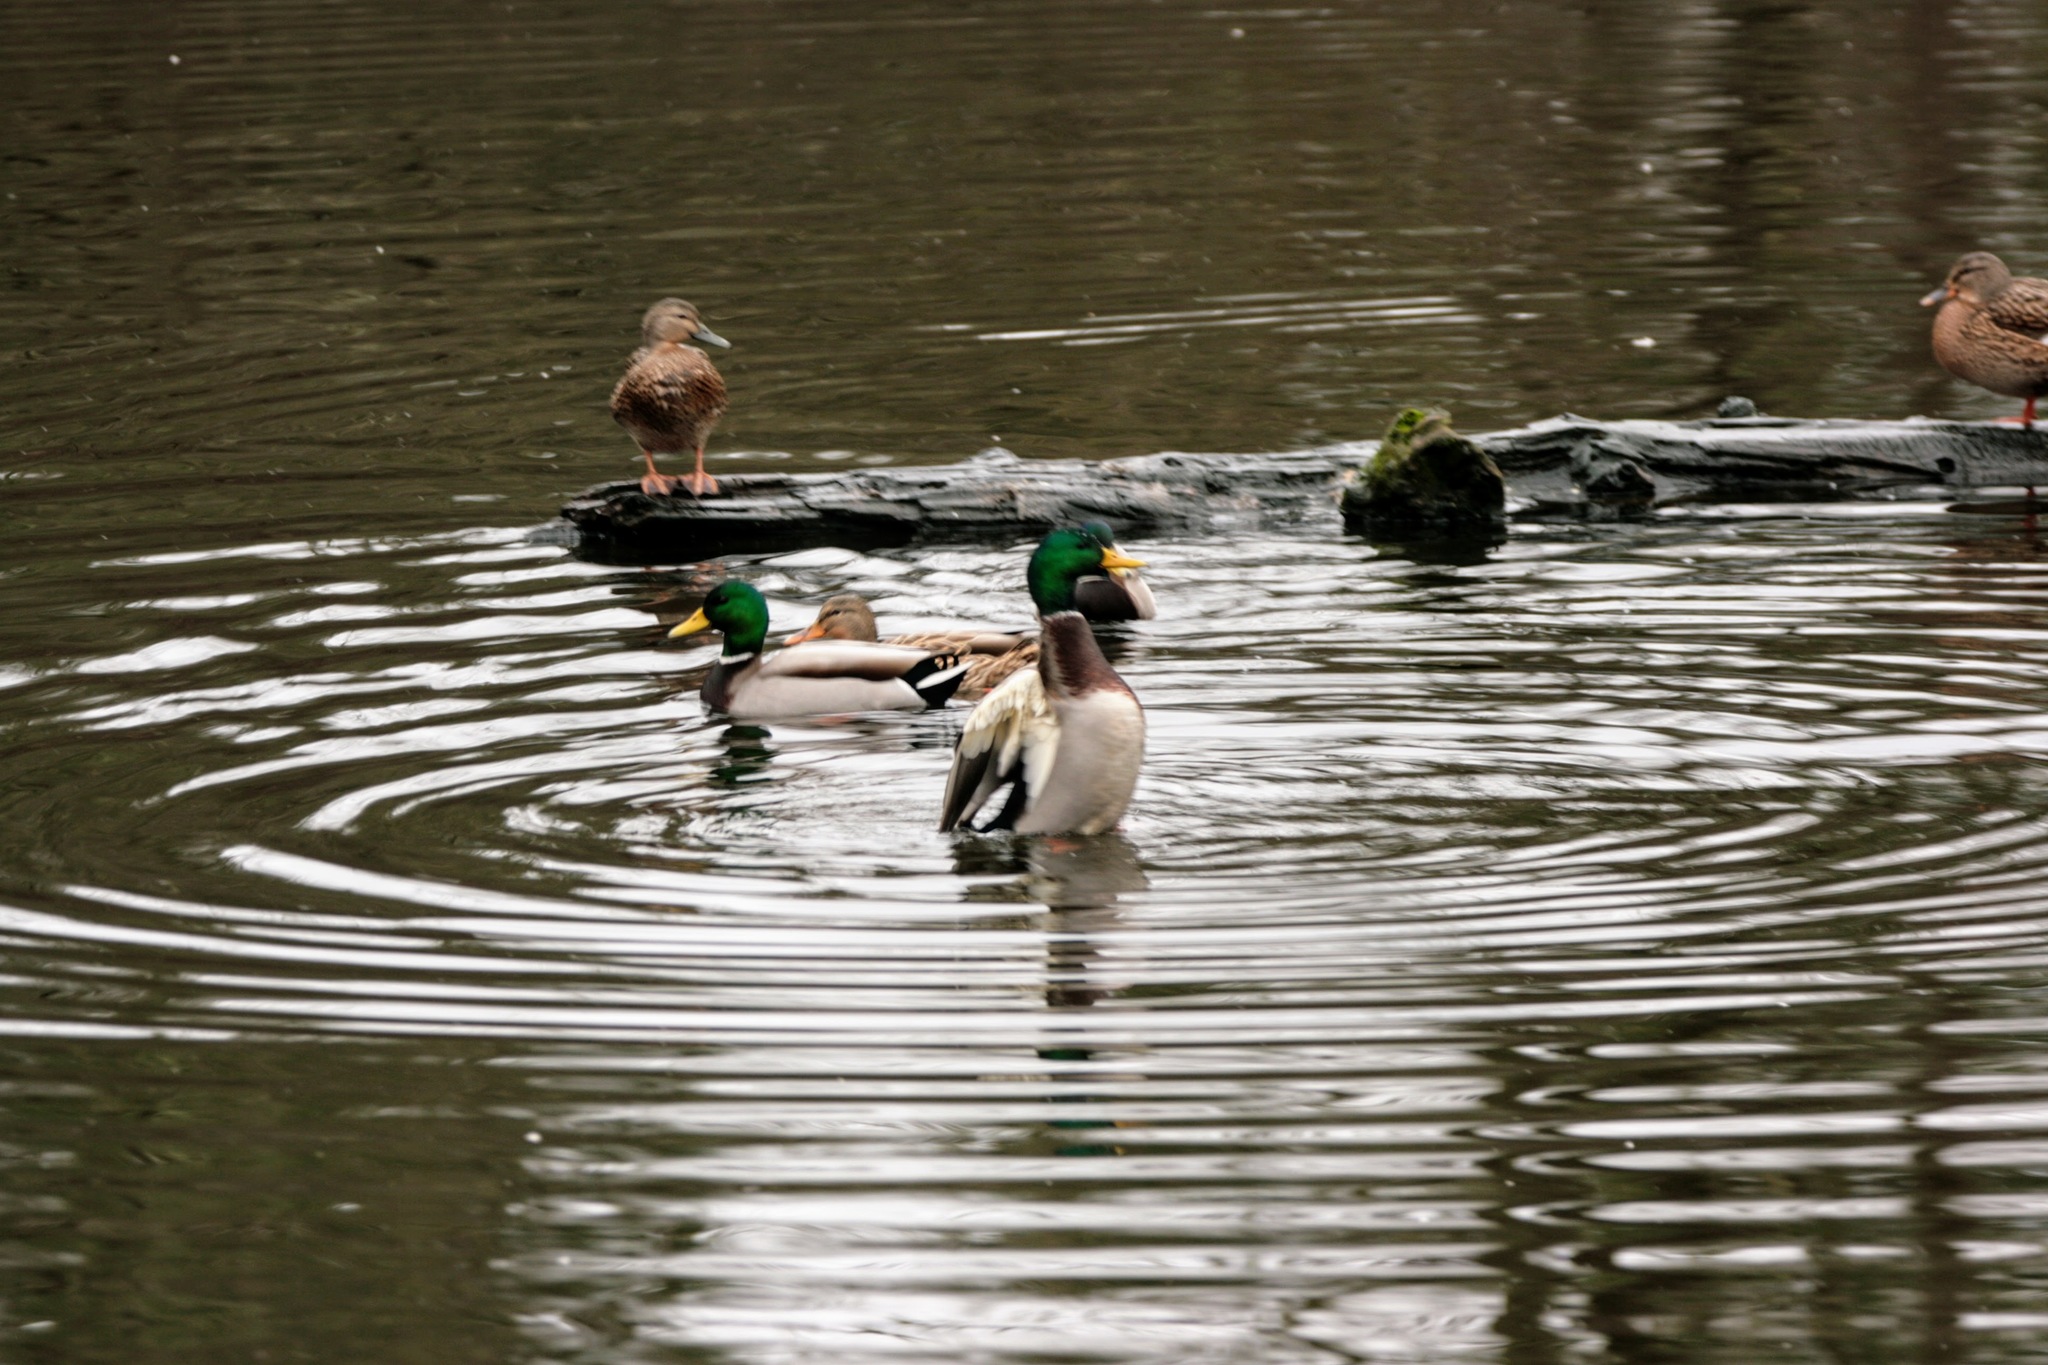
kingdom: Animalia
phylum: Chordata
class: Aves
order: Anseriformes
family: Anatidae
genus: Anas
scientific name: Anas platyrhynchos
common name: Mallard
